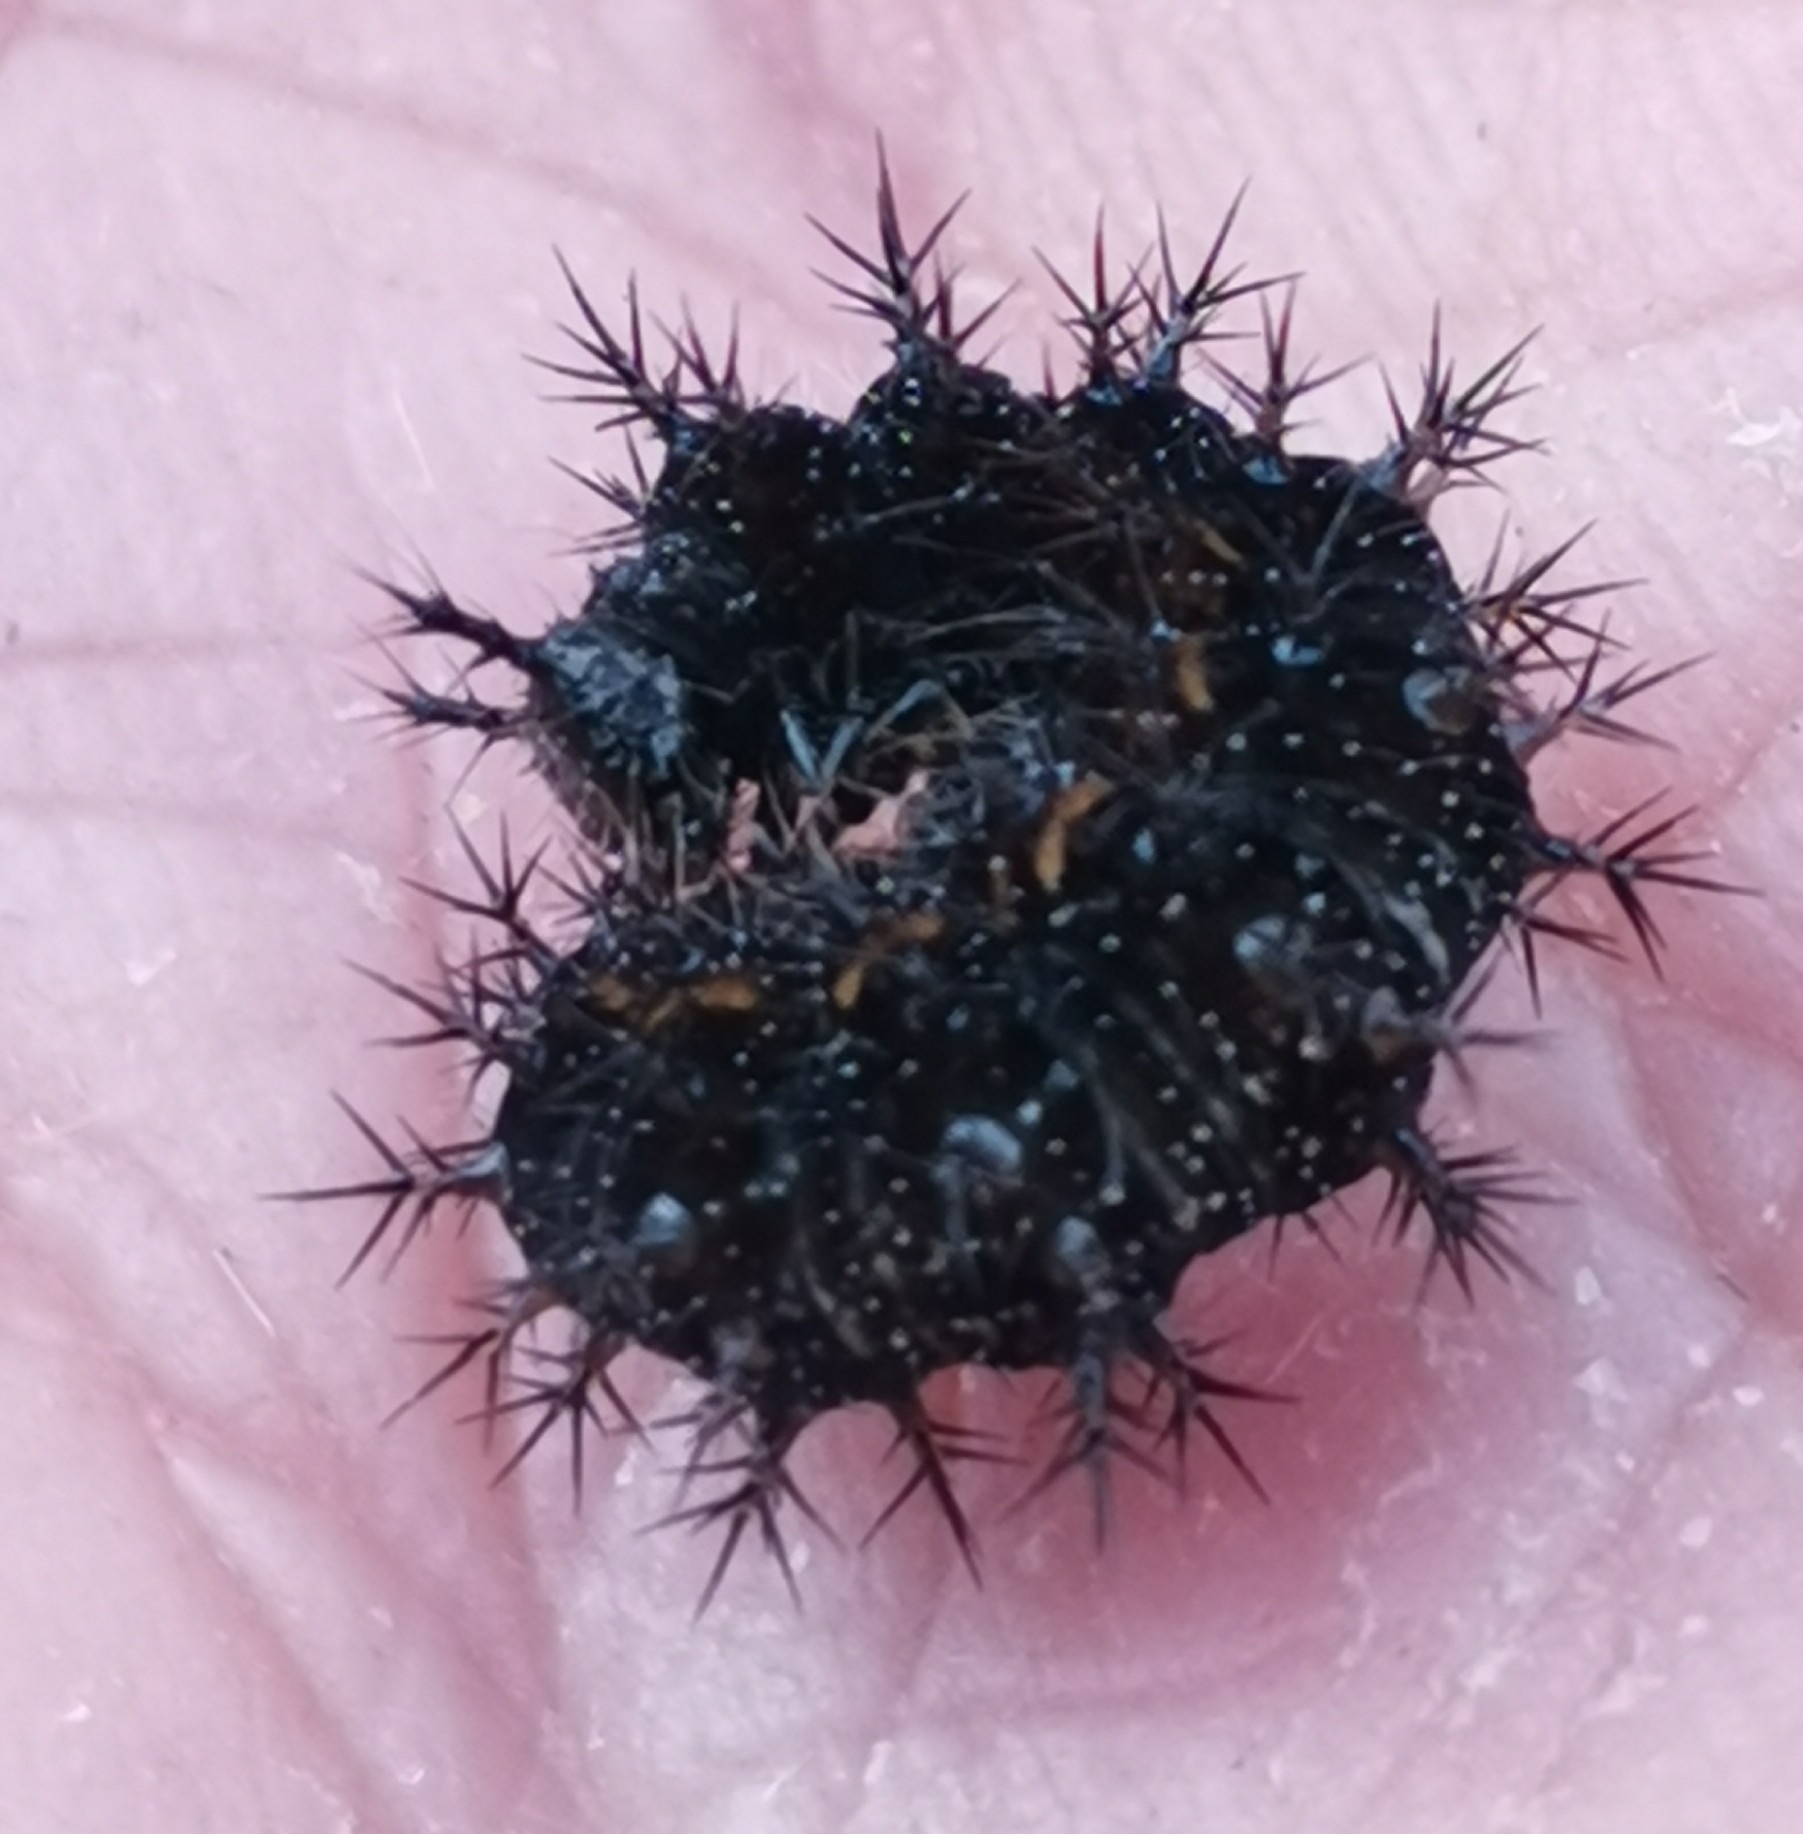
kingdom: Animalia
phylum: Arthropoda
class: Insecta
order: Lepidoptera
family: Nymphalidae
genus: Araschnia
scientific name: Araschnia levana
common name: Map butterfly
